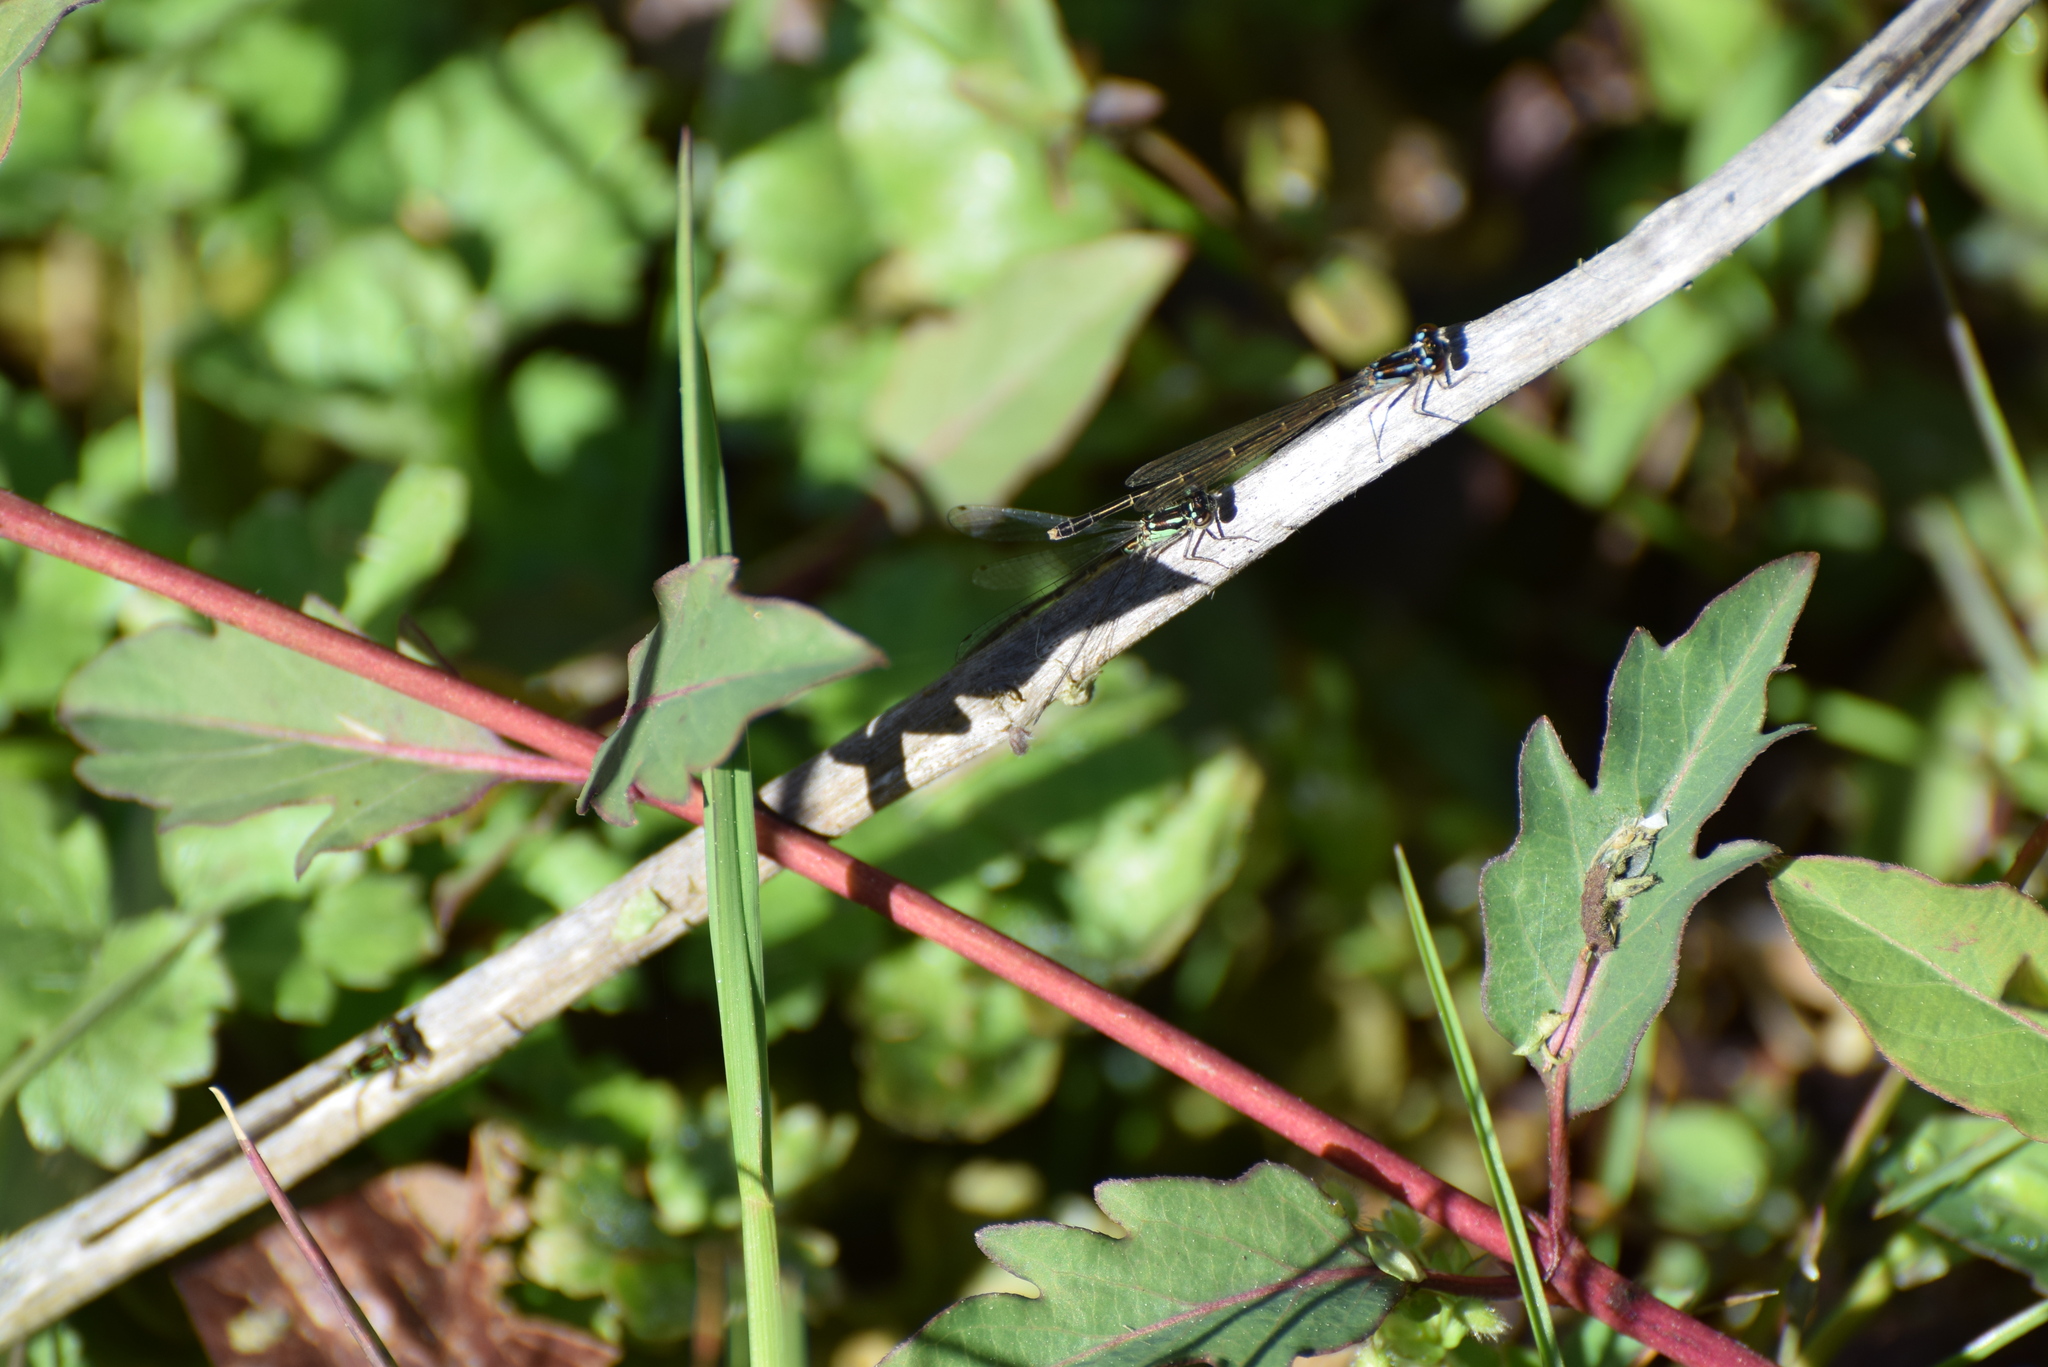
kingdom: Animalia
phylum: Arthropoda
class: Insecta
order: Odonata
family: Coenagrionidae
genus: Ischnura
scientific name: Ischnura posita
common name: Fragile forktail
